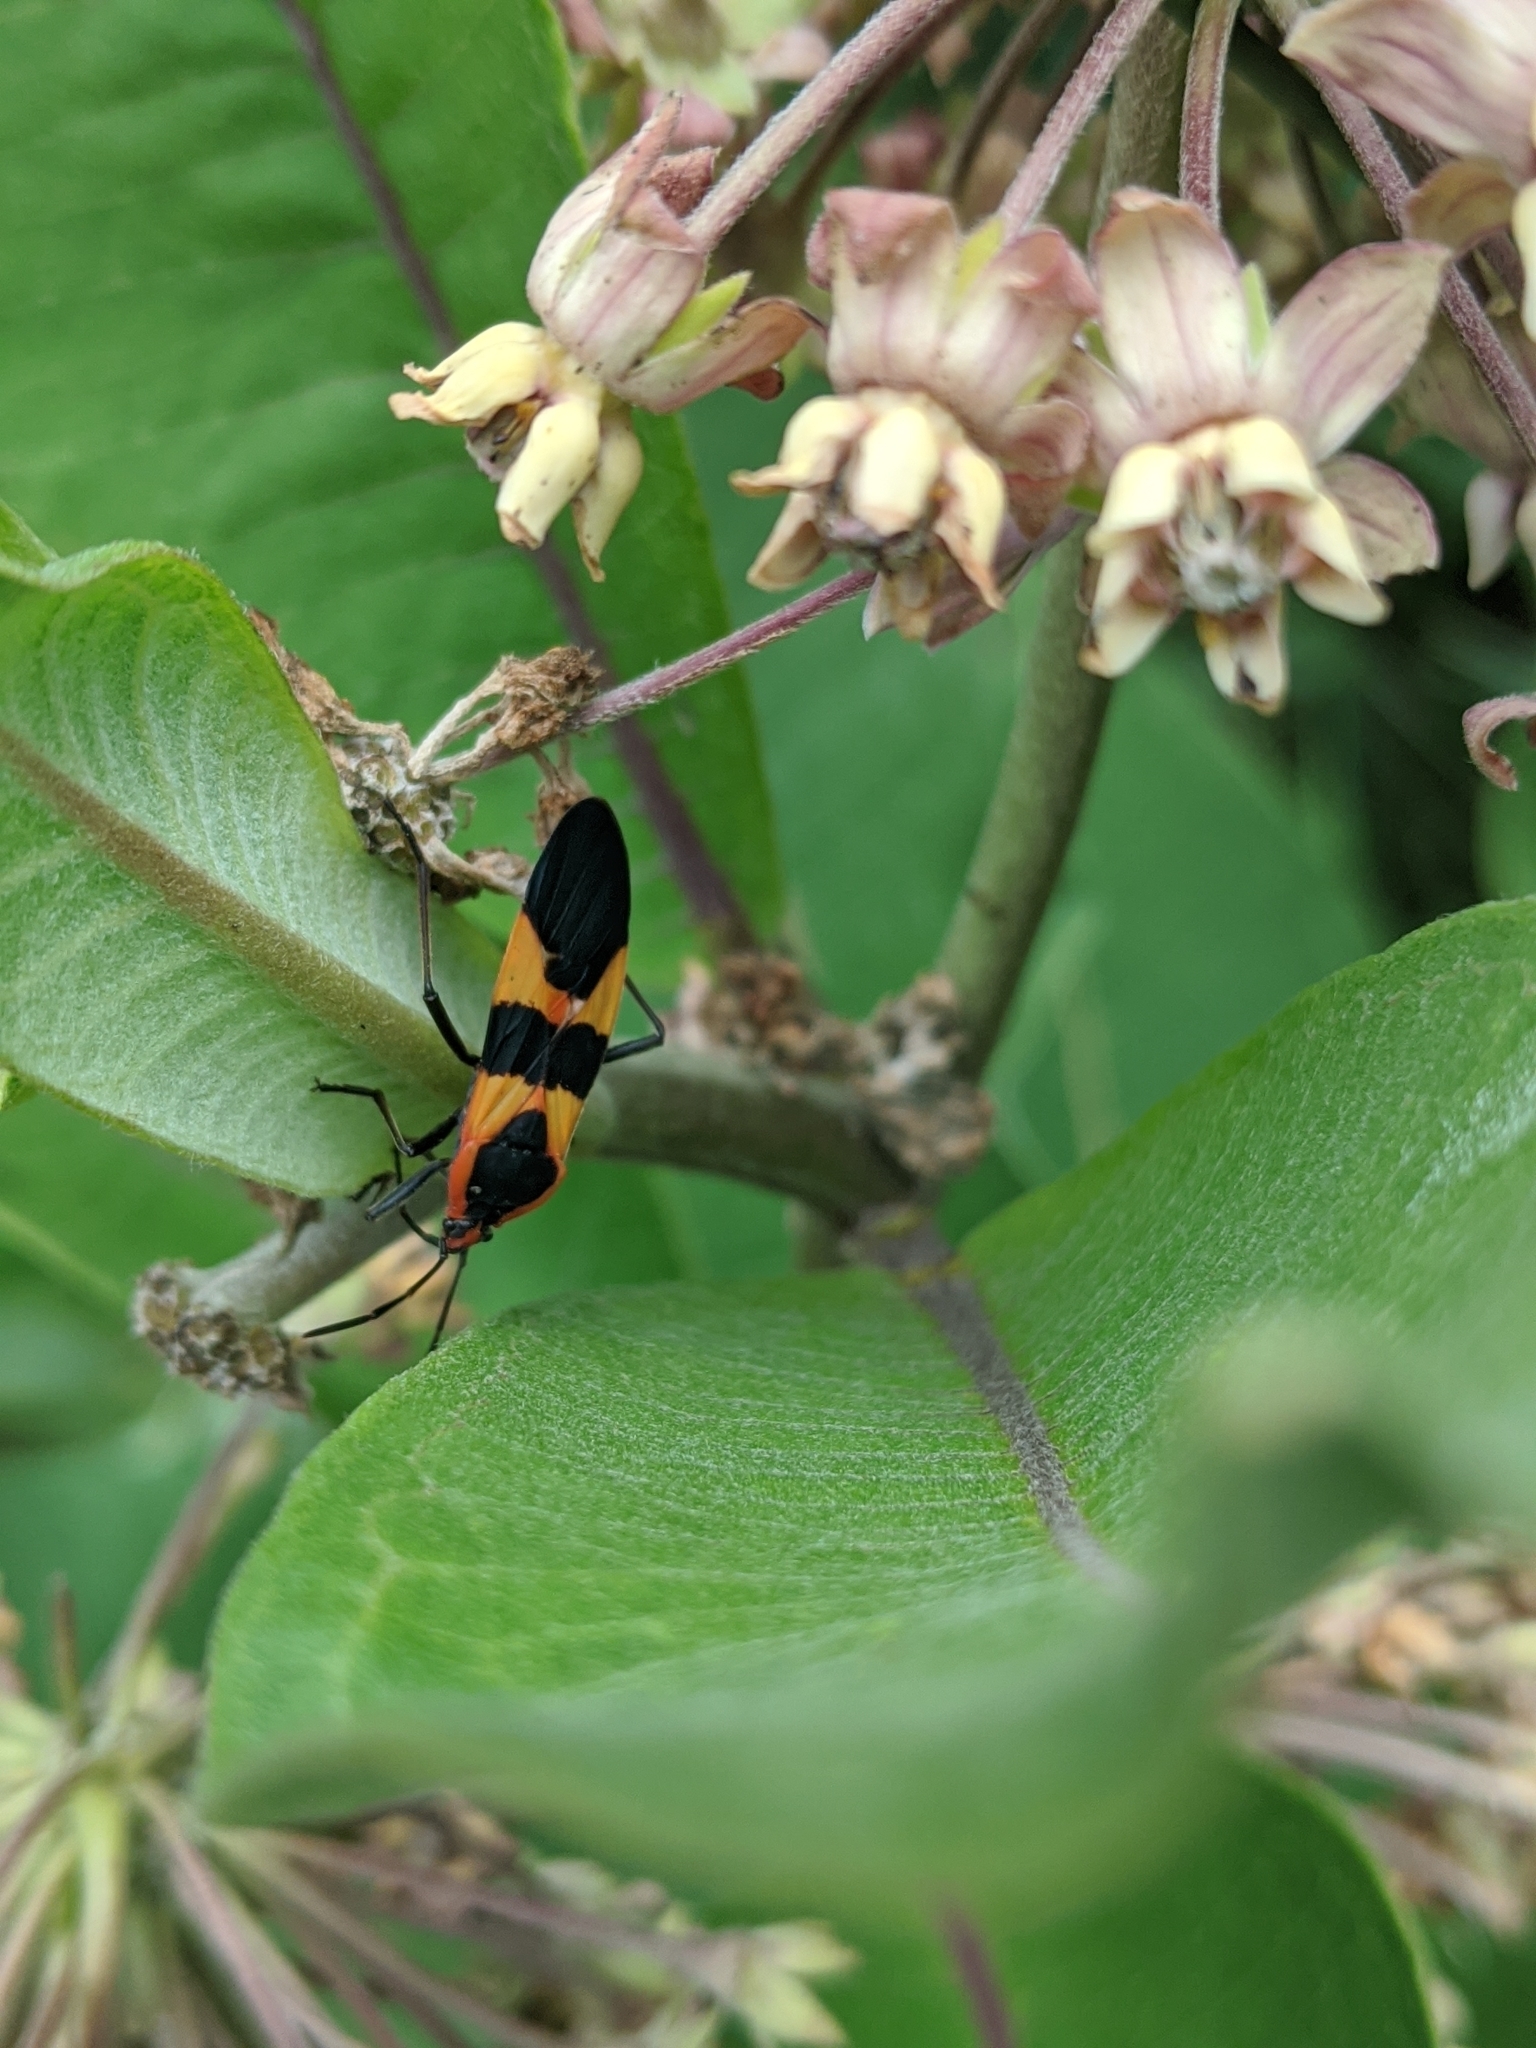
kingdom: Animalia
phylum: Arthropoda
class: Insecta
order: Hemiptera
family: Lygaeidae
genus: Oncopeltus
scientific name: Oncopeltus fasciatus
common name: Large milkweed bug
